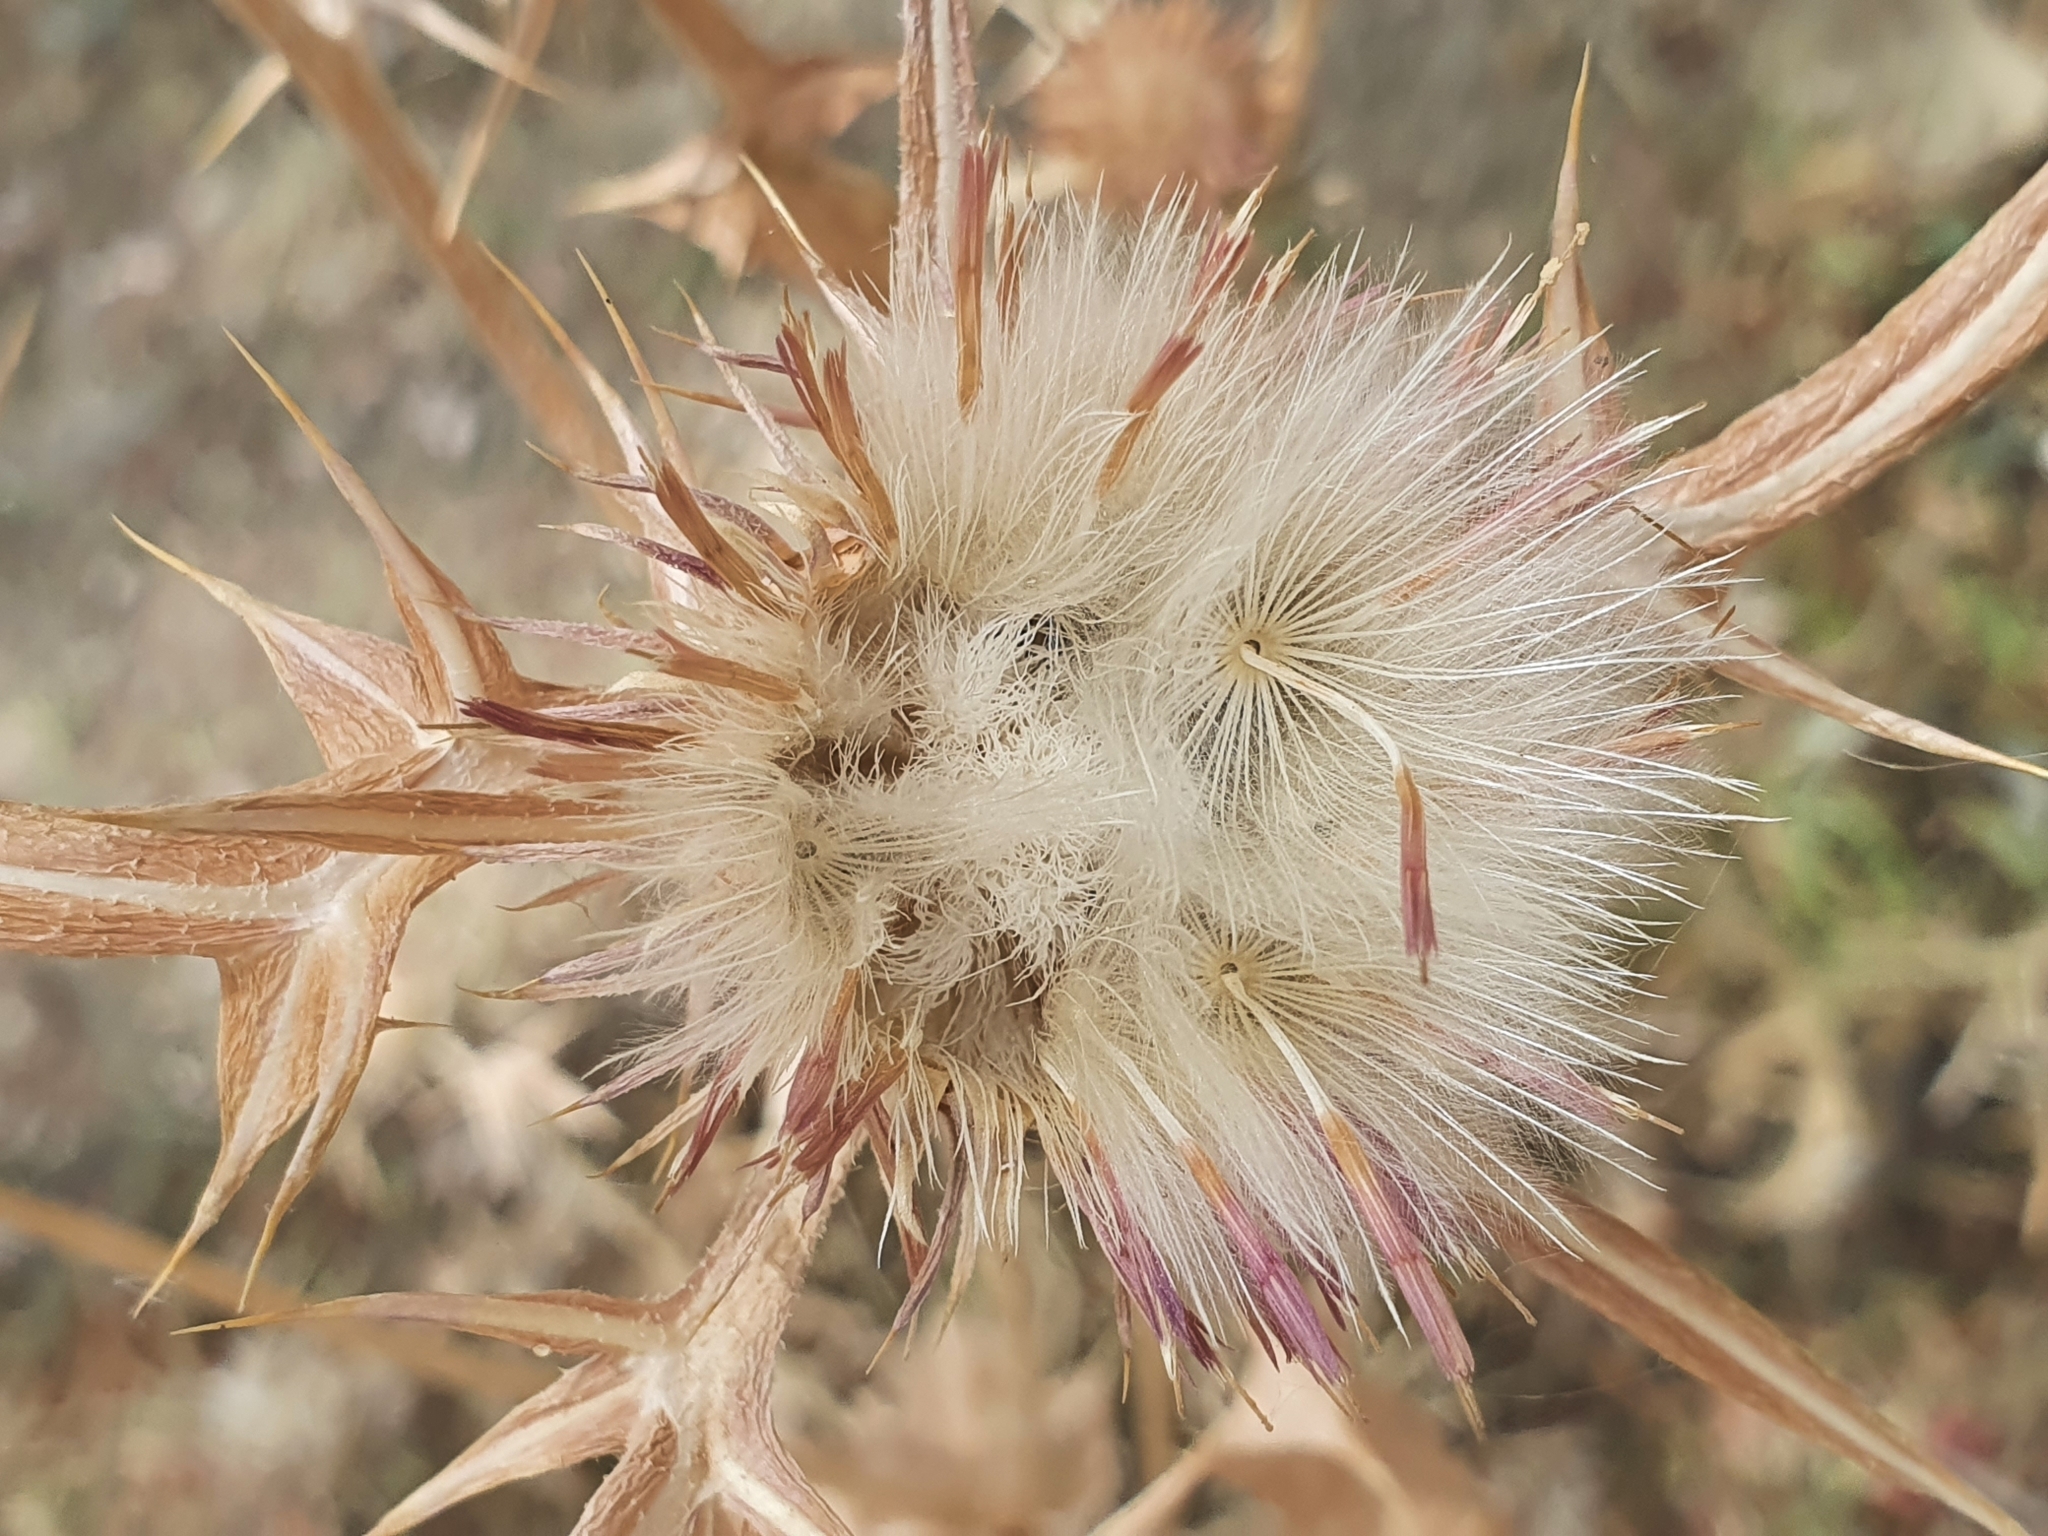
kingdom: Plantae
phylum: Tracheophyta
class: Magnoliopsida
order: Asterales
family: Asteraceae
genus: Notobasis
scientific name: Notobasis syriaca
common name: Syrian thistle
